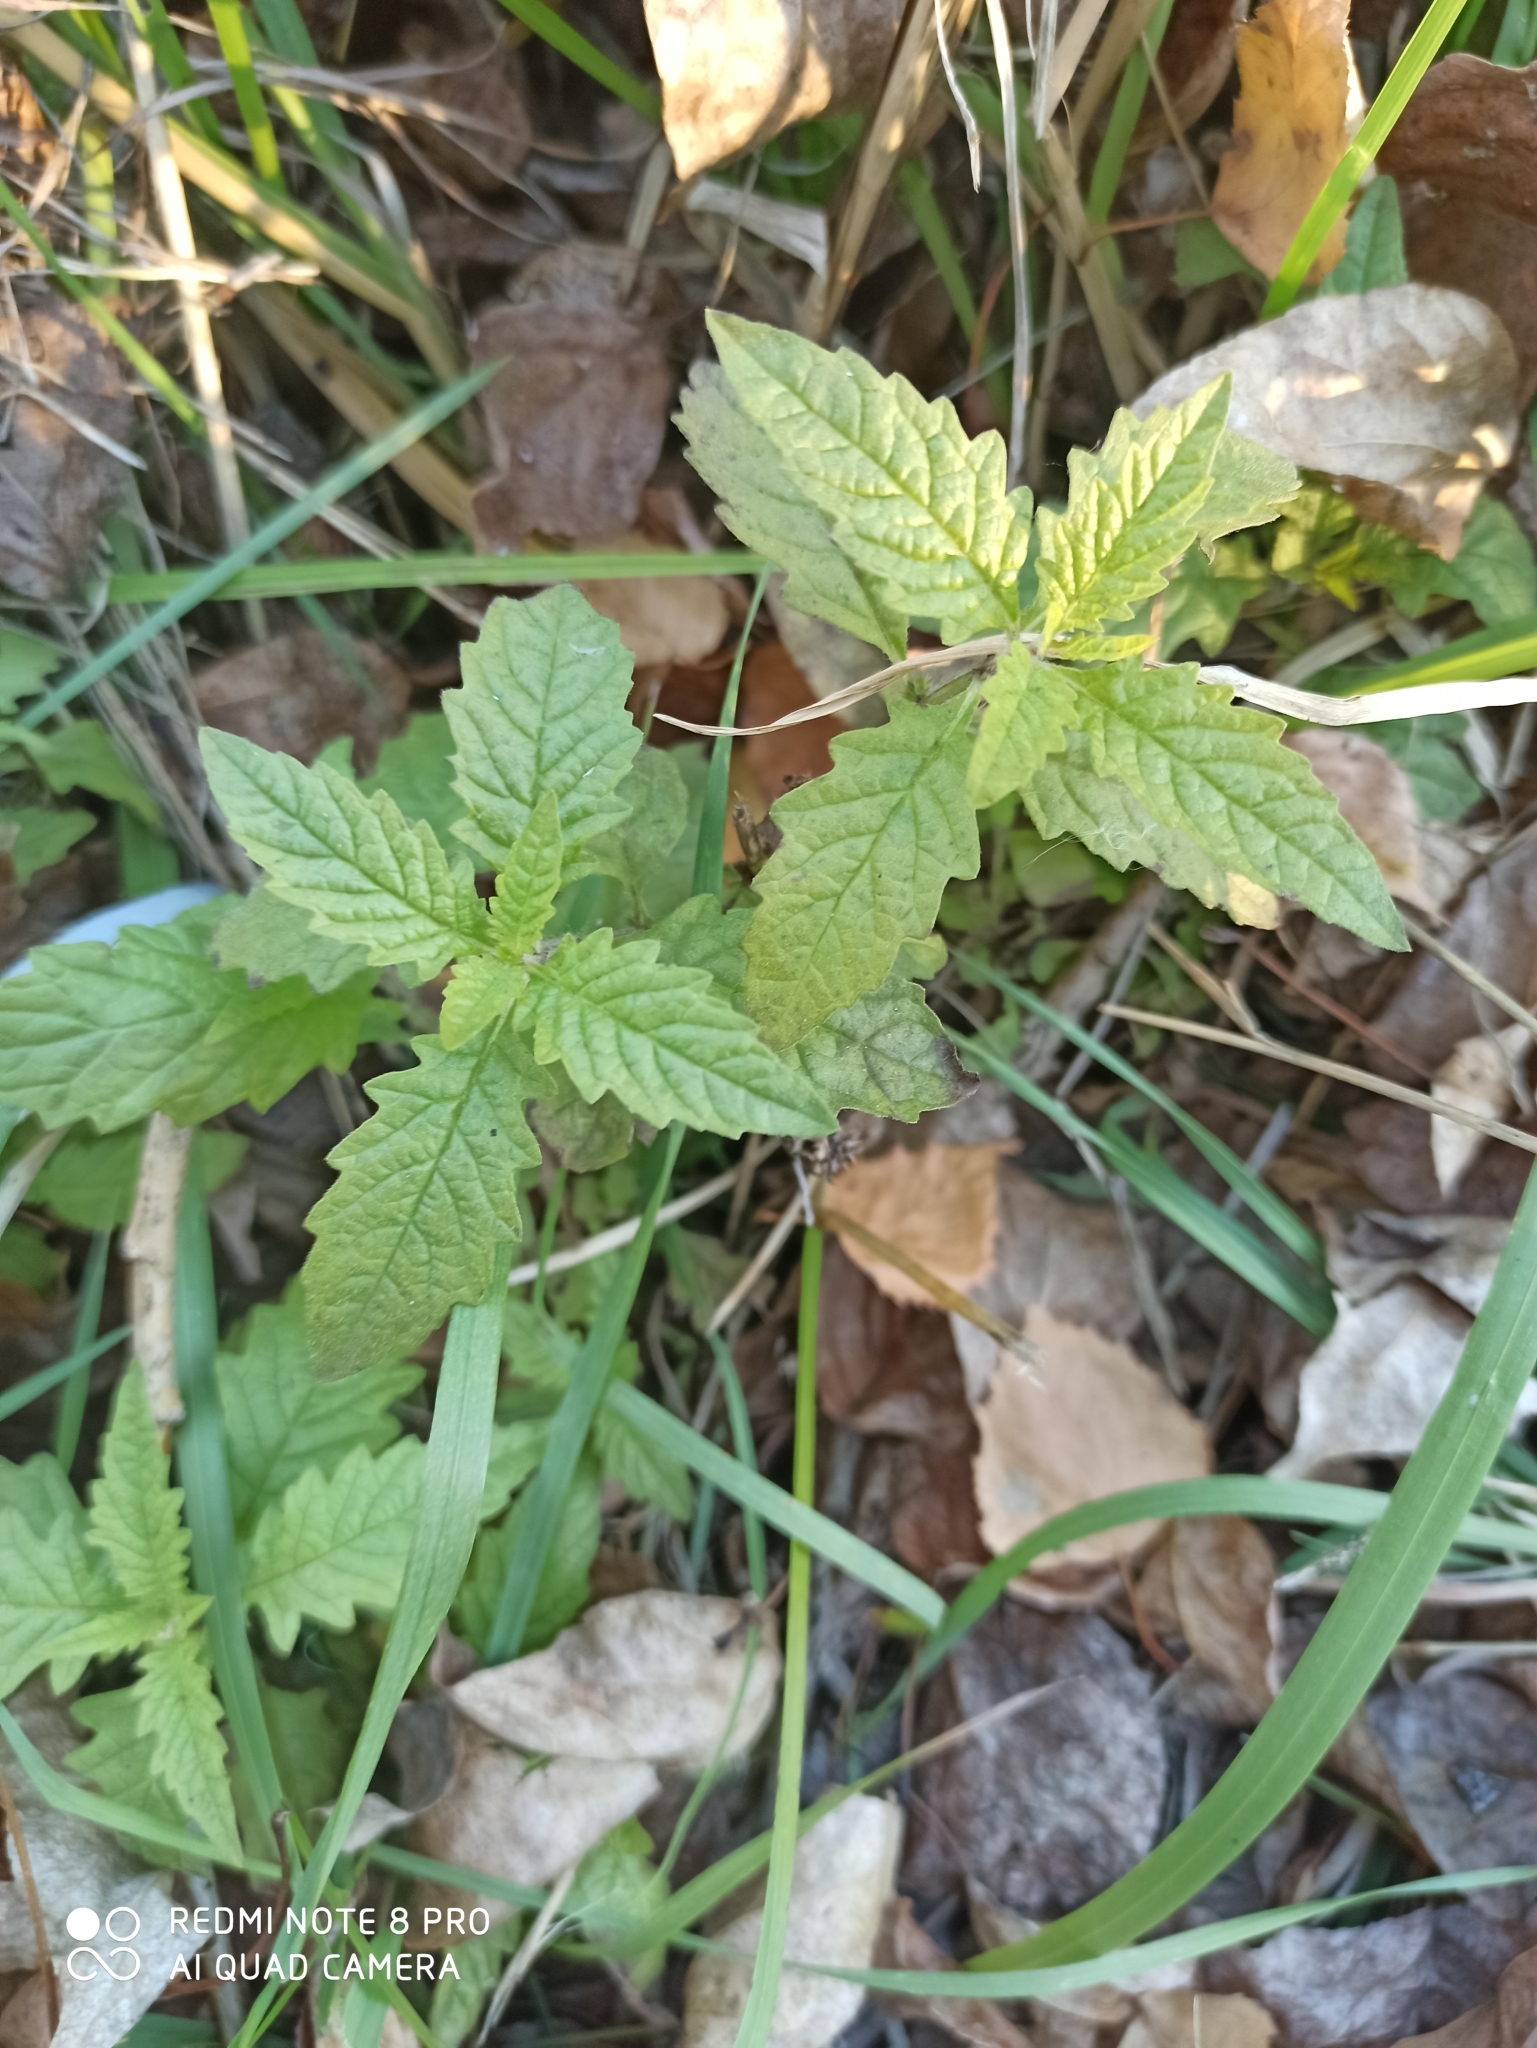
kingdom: Plantae
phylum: Tracheophyta
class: Magnoliopsida
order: Lamiales
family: Lamiaceae
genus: Lycopus
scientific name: Lycopus europaeus
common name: European bugleweed
